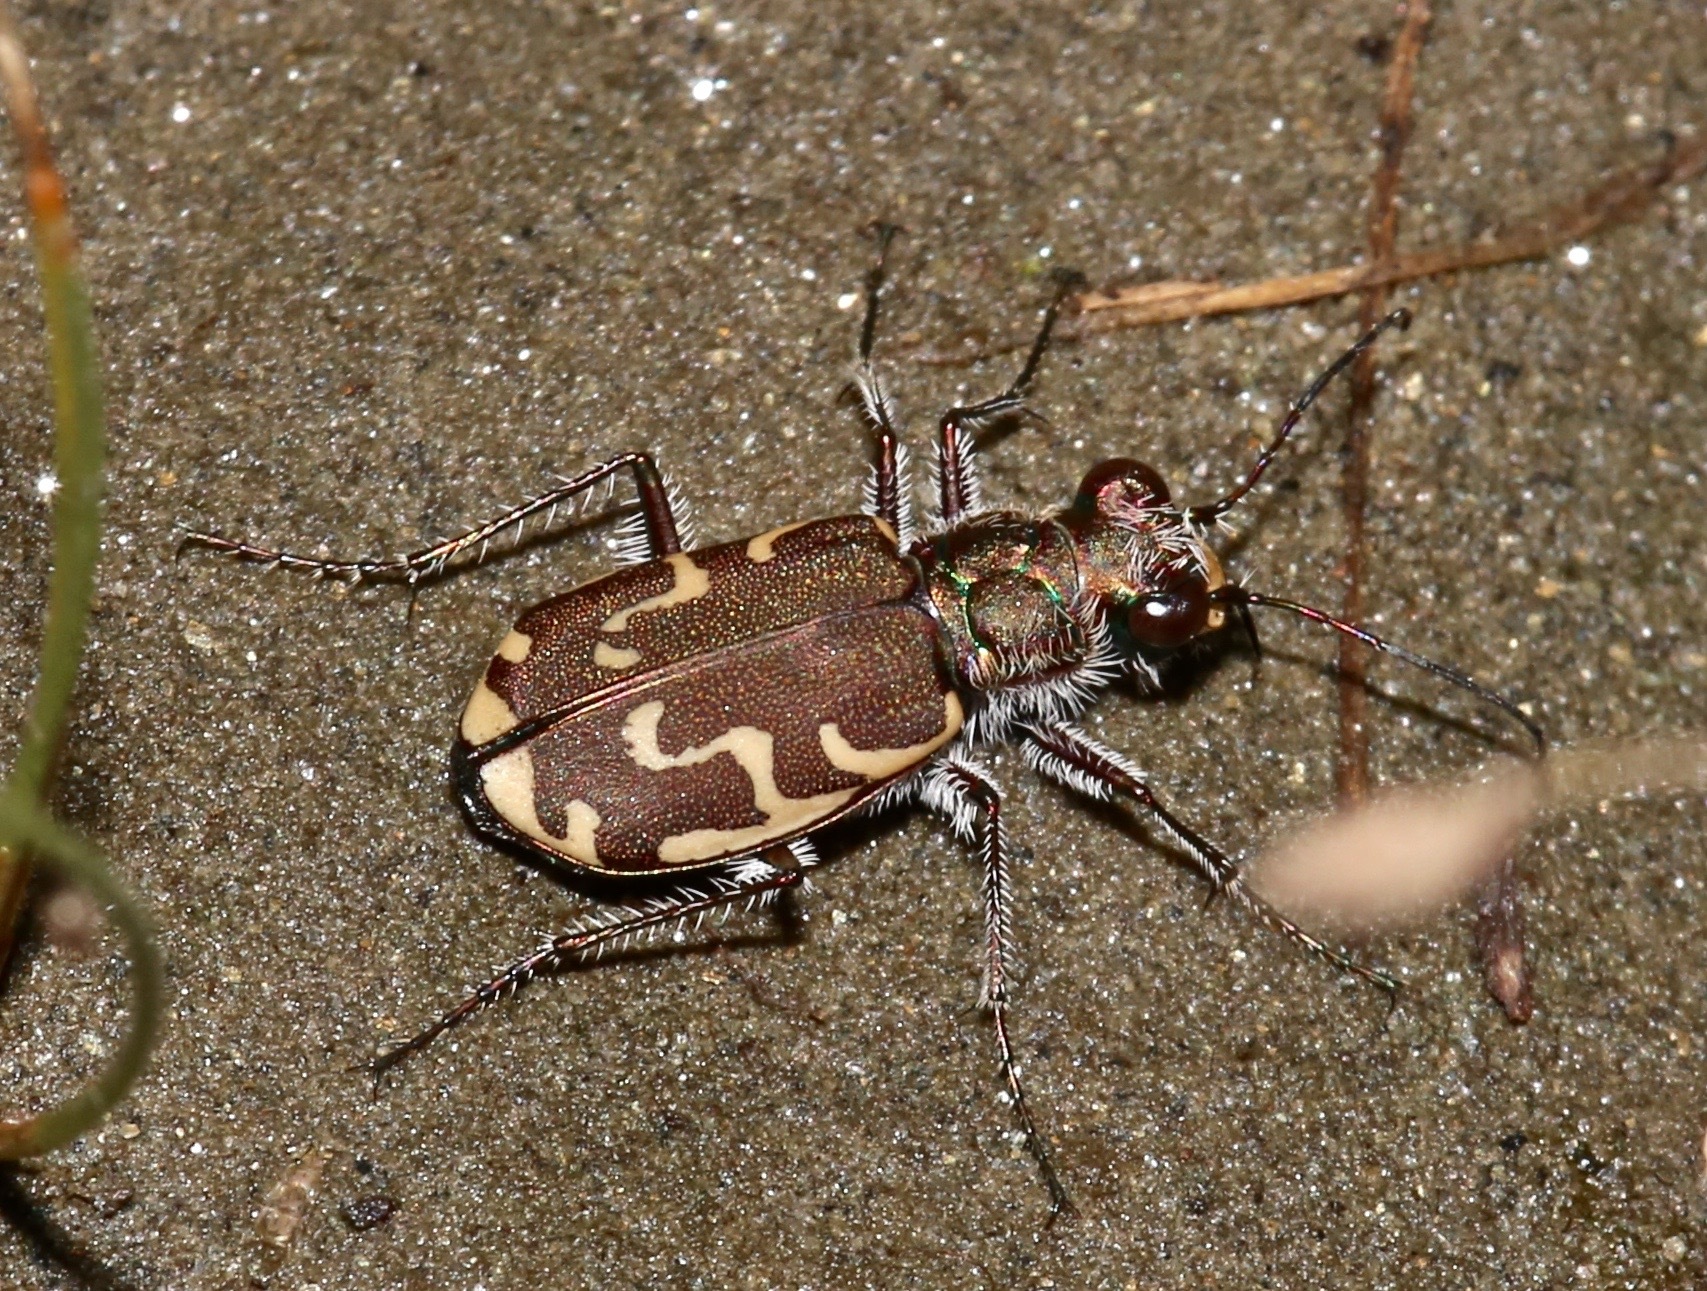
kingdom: Animalia
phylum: Arthropoda
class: Insecta
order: Coleoptera
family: Carabidae
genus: Cicindela
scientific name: Cicindela repanda
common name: Bronzed tiger beetle
